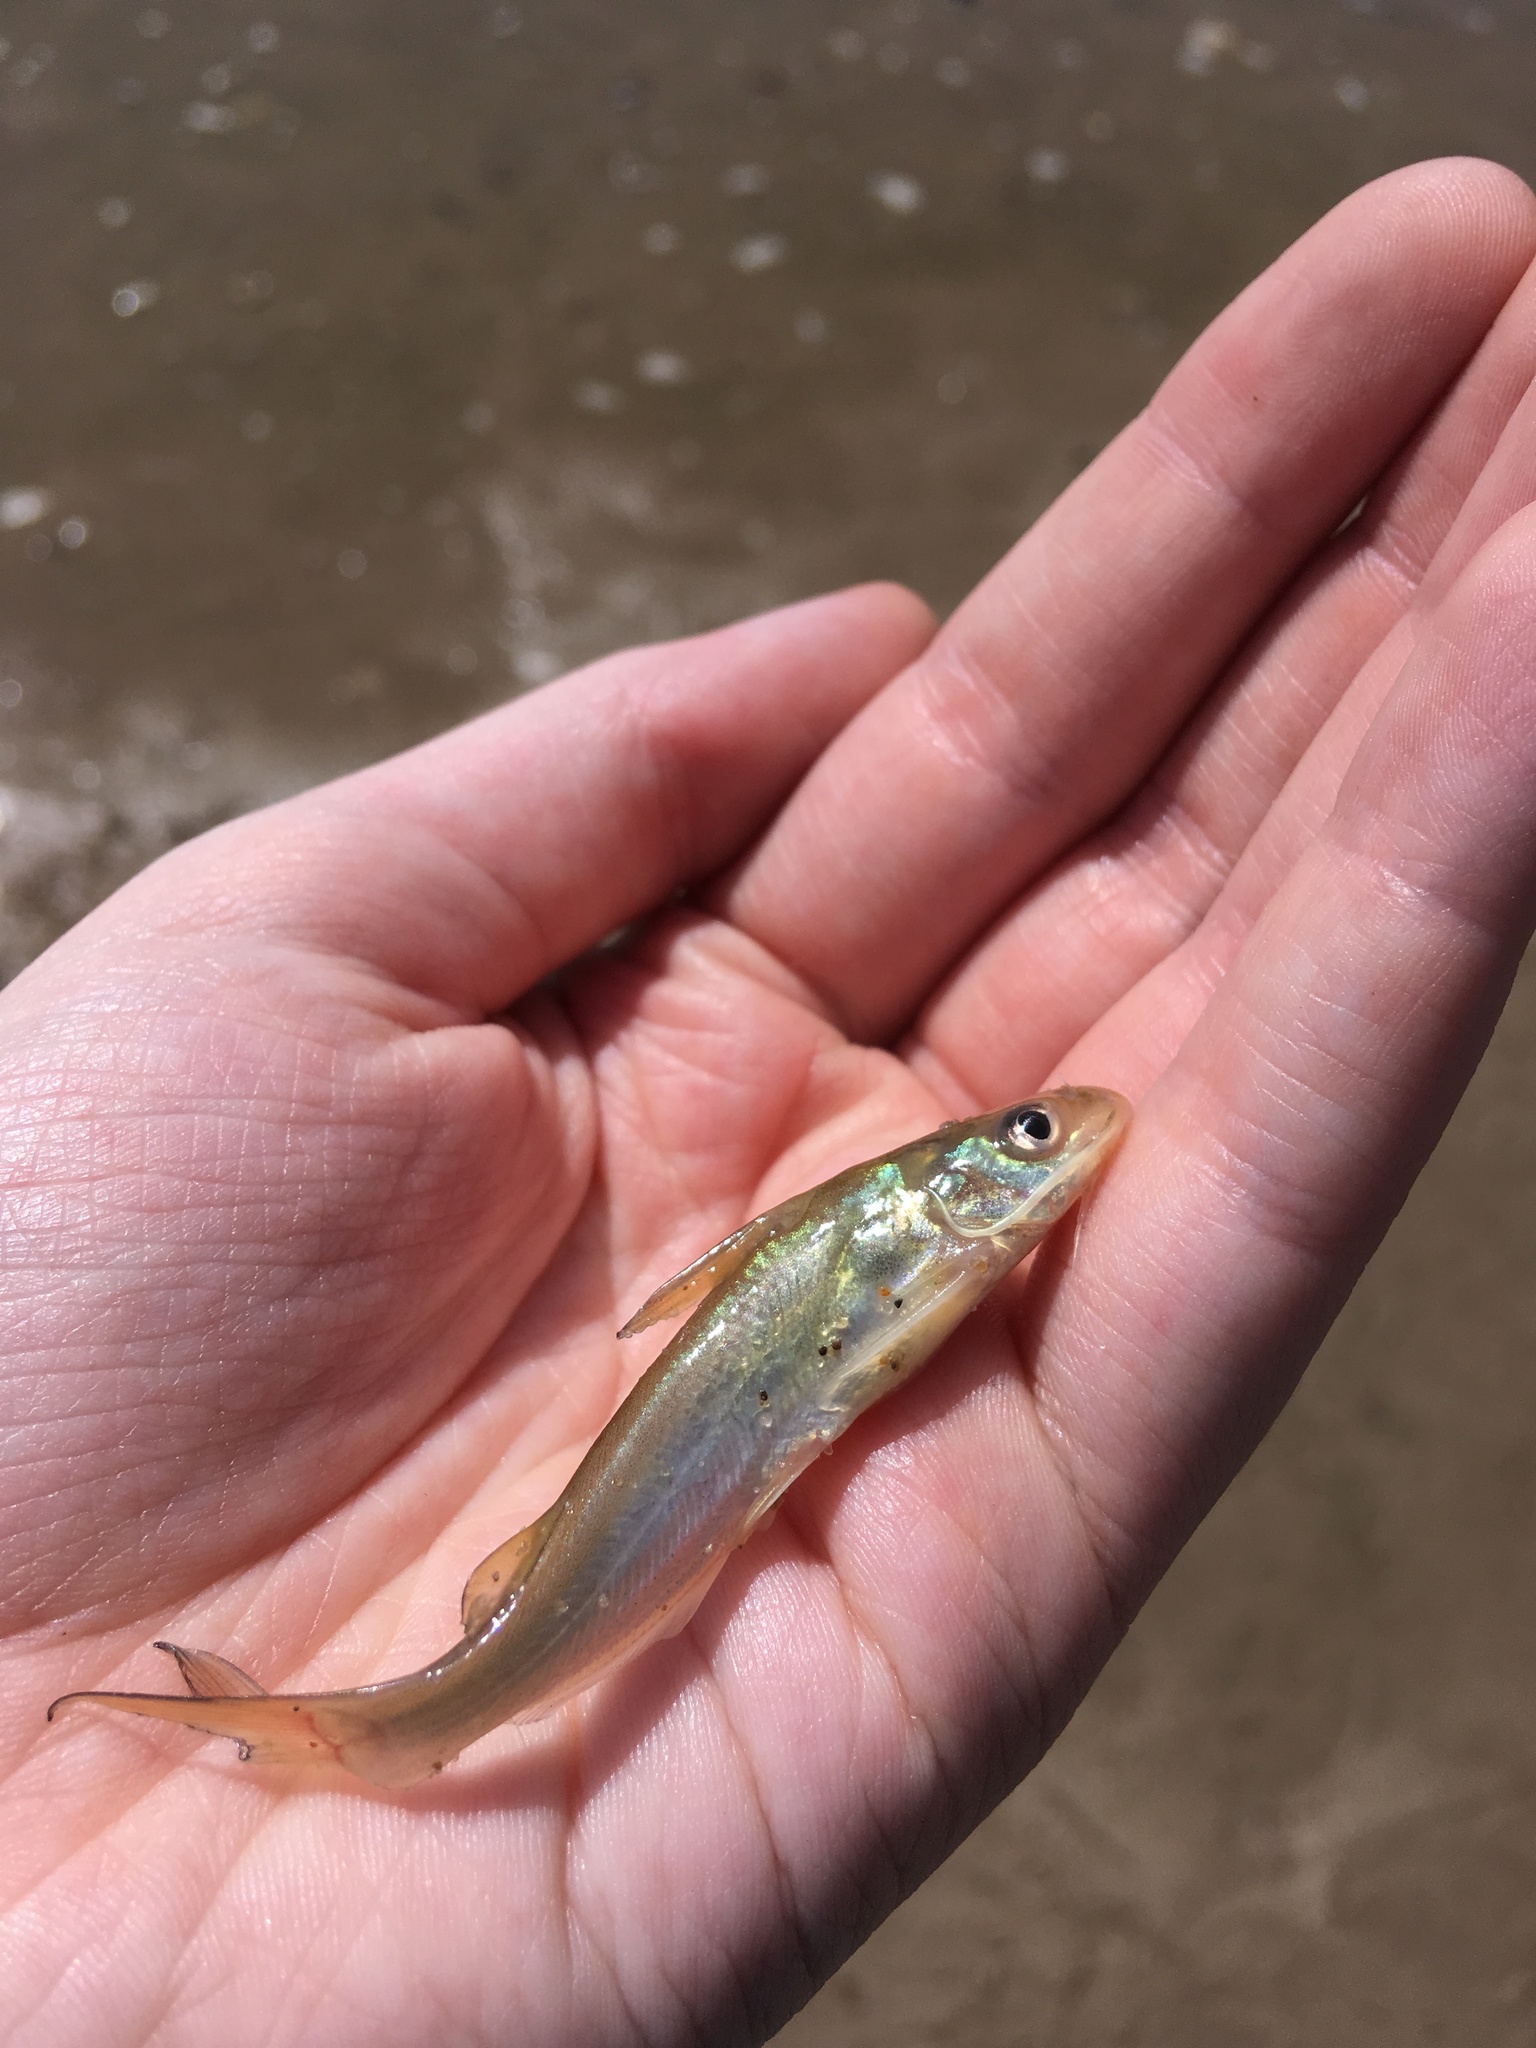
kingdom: Animalia
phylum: Chordata
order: Siluriformes
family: Ictaluridae
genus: Ictalurus
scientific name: Ictalurus punctatus
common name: Channel catfish
